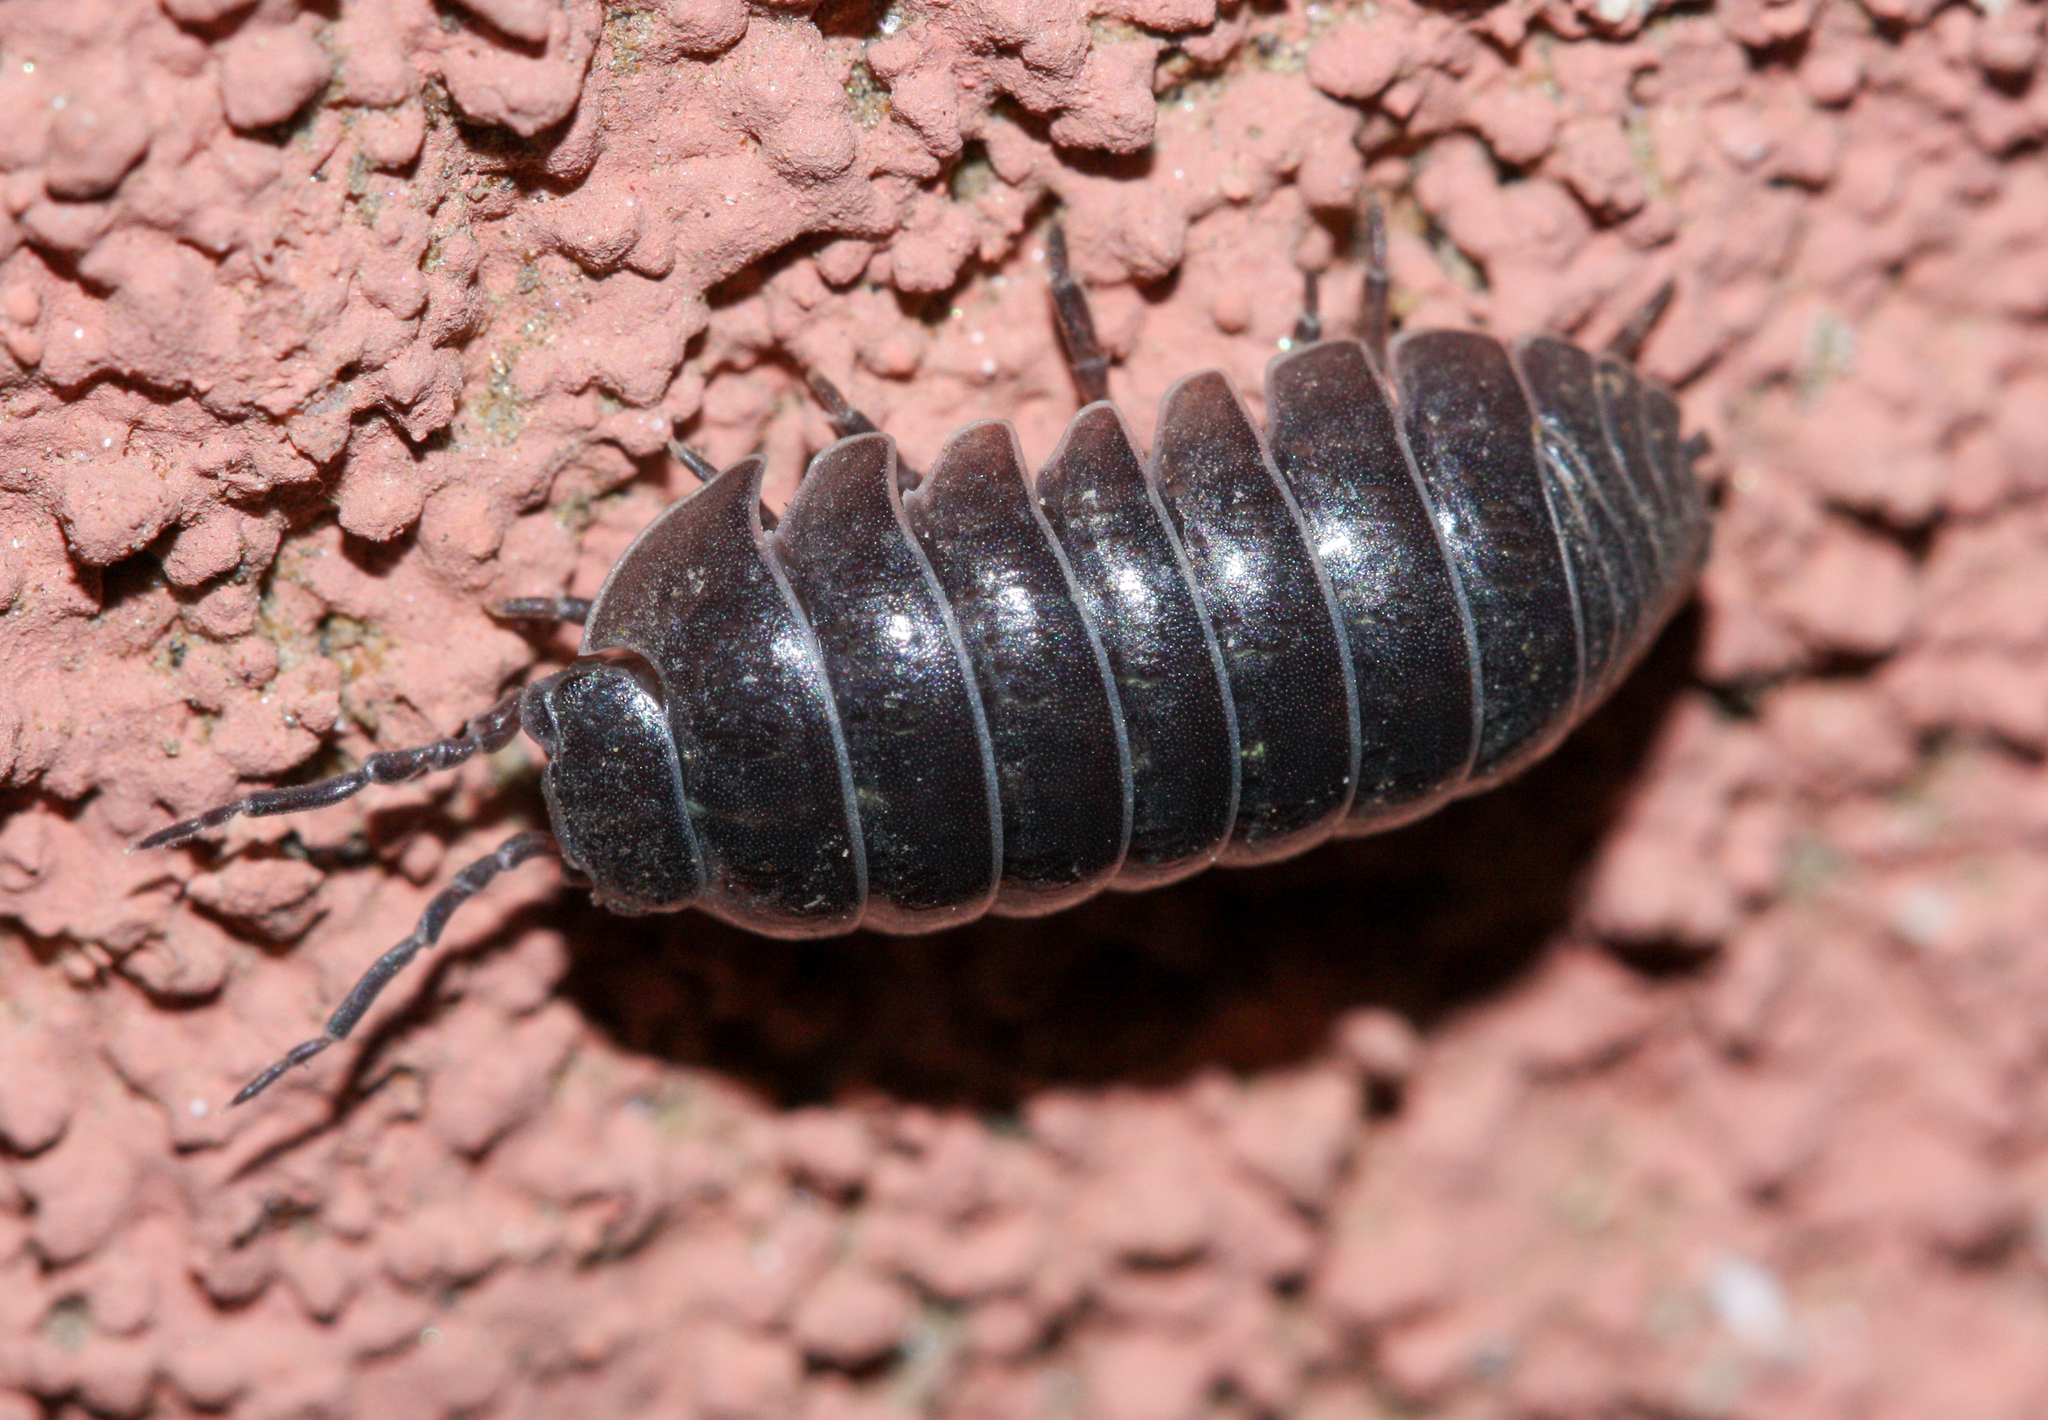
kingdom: Animalia
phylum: Arthropoda
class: Malacostraca
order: Isopoda
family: Armadillidiidae
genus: Armadillidium
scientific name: Armadillidium vulgare
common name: Common pill woodlouse
